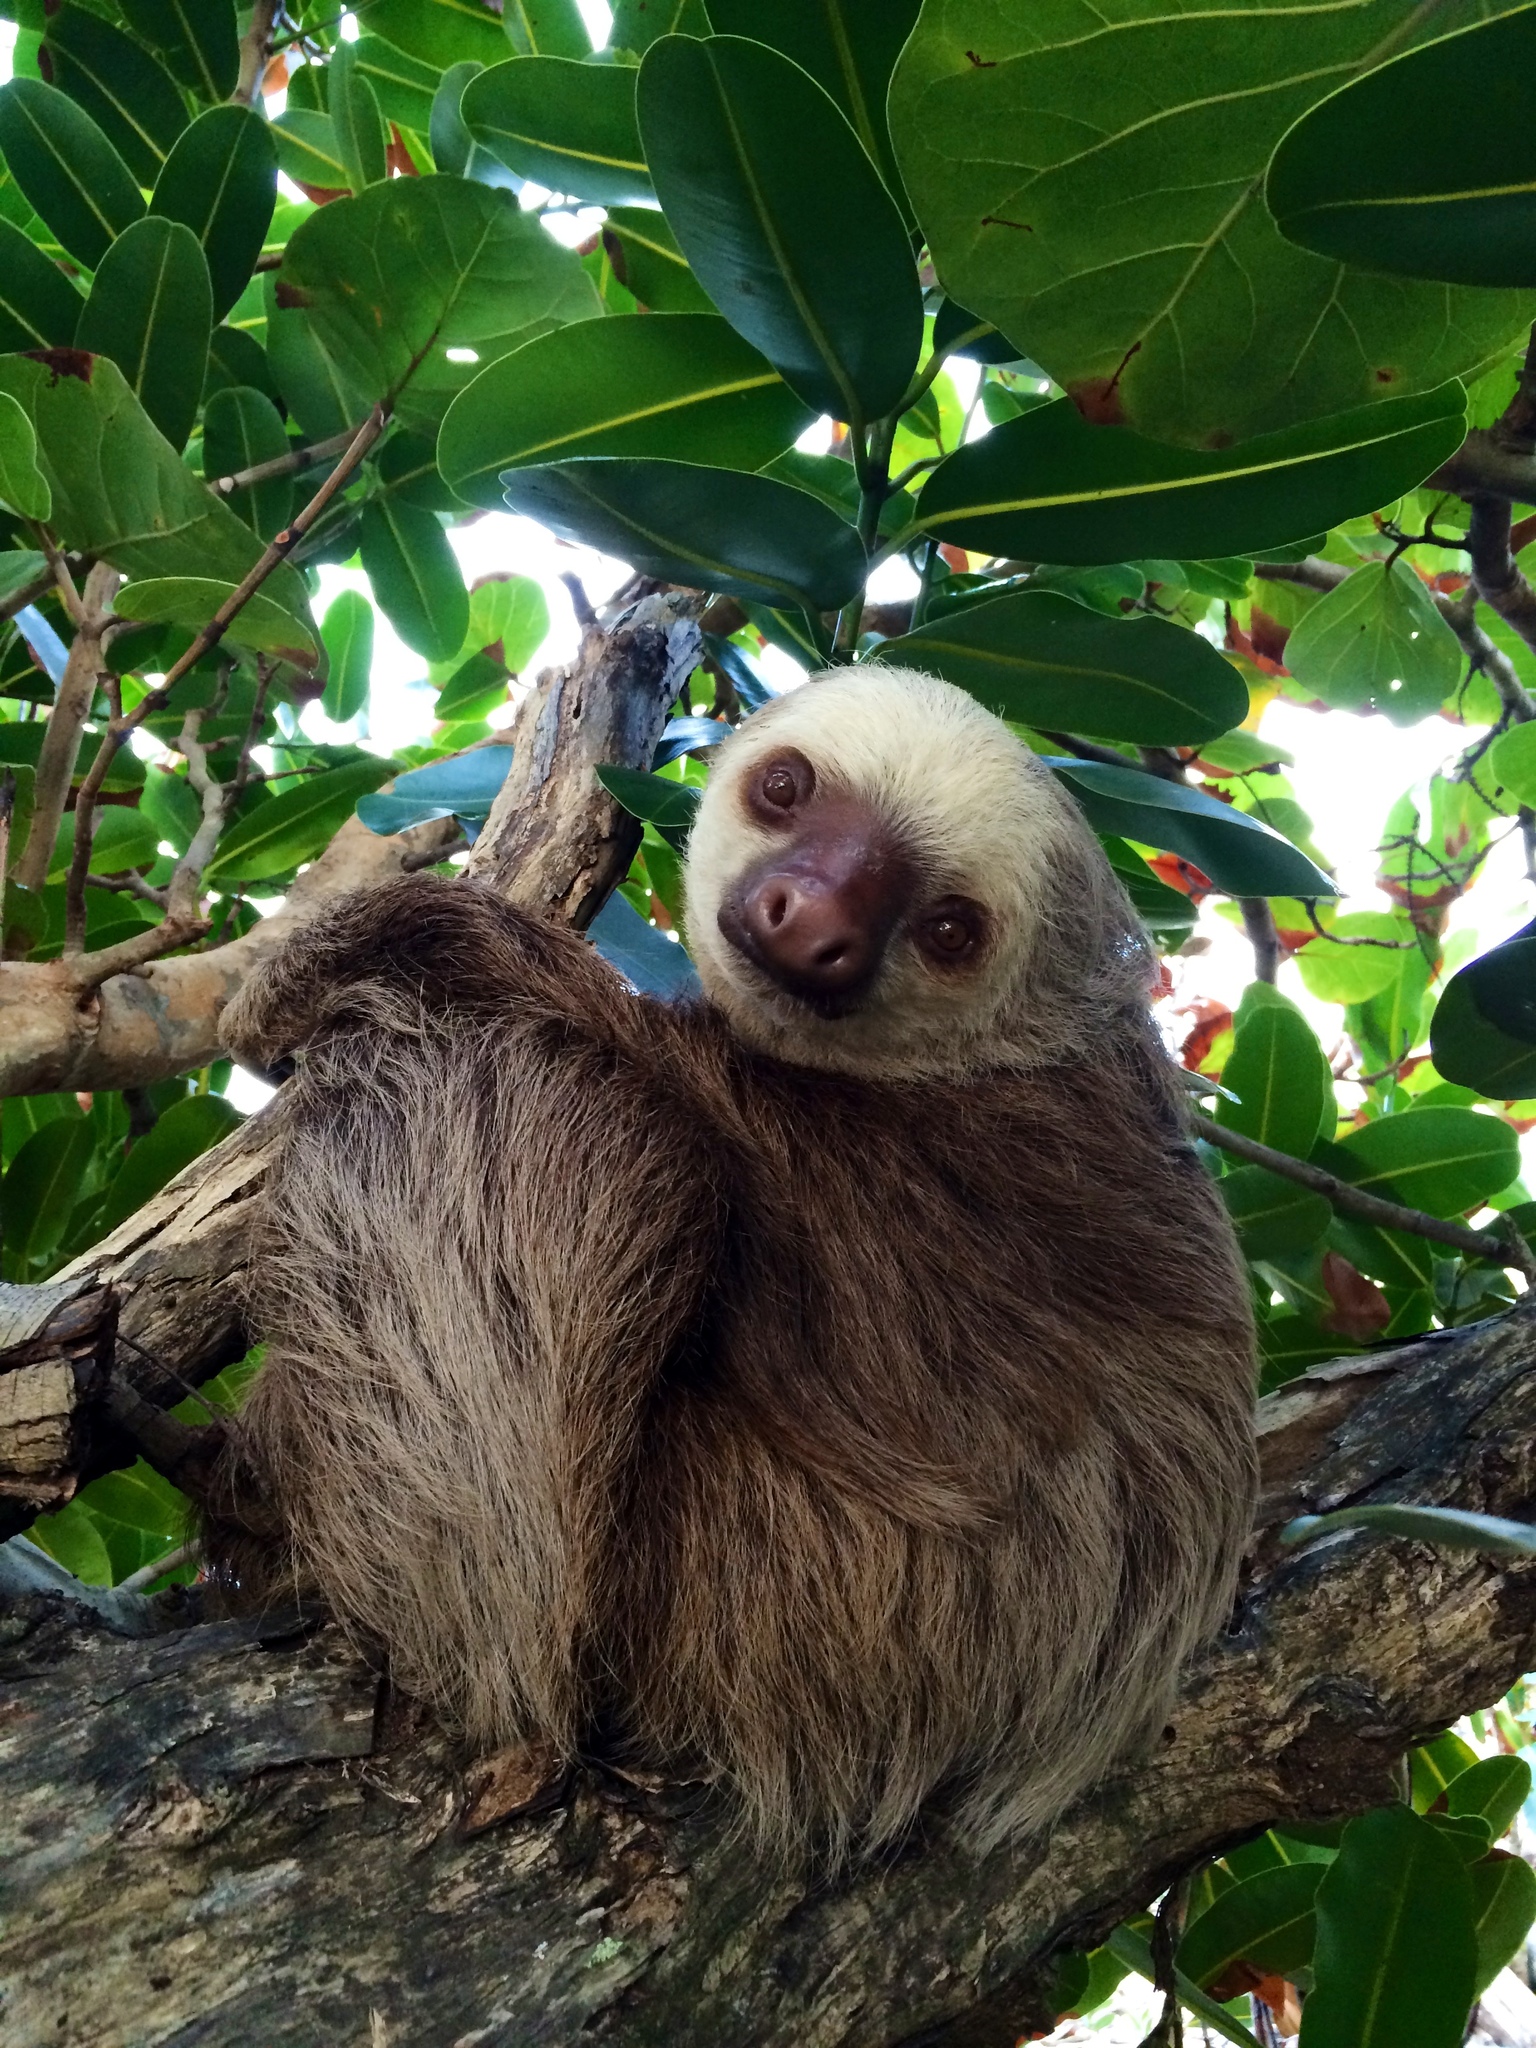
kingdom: Animalia
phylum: Chordata
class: Mammalia
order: Pilosa
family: Megalonychidae
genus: Choloepus
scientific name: Choloepus hoffmanni
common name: Hoffmann's two-toed sloth
